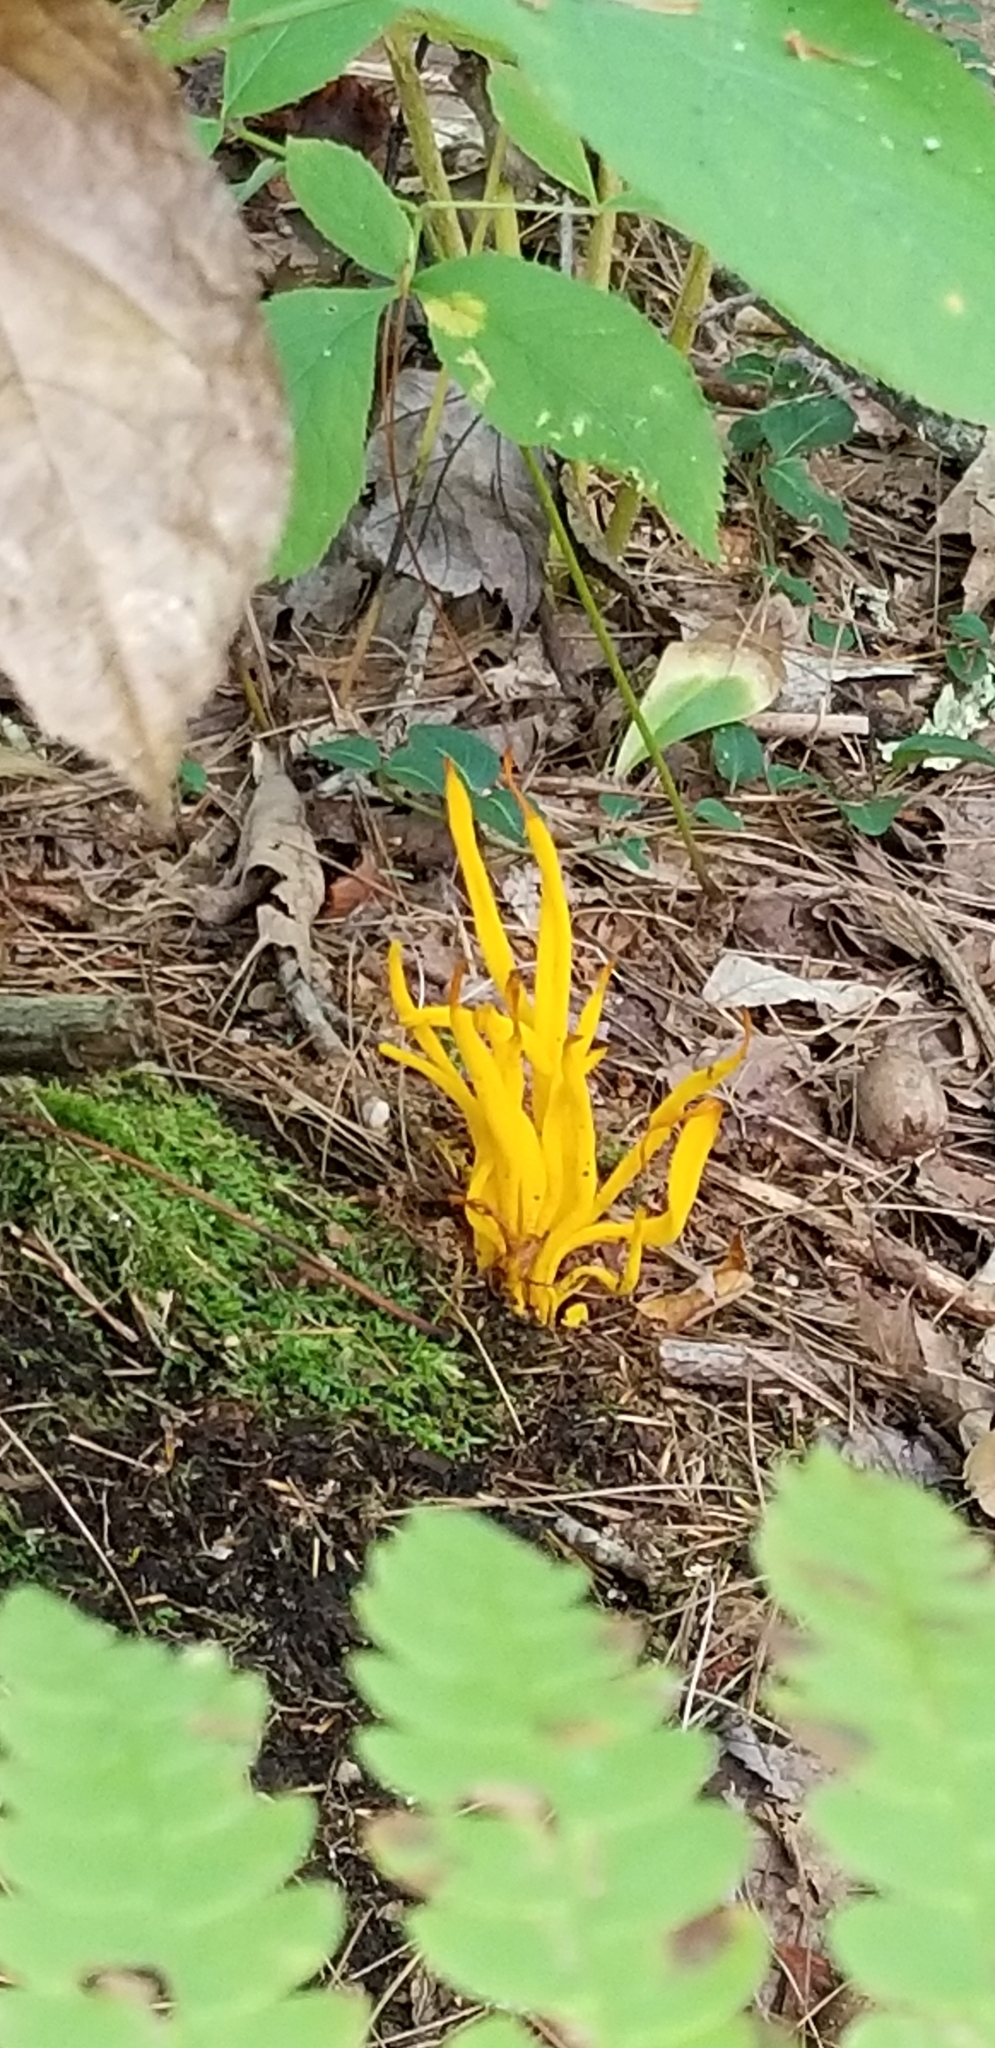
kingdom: Fungi
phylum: Basidiomycota
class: Agaricomycetes
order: Agaricales
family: Clavariaceae
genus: Clavulinopsis
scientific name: Clavulinopsis fusiformis
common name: Golden spindles
